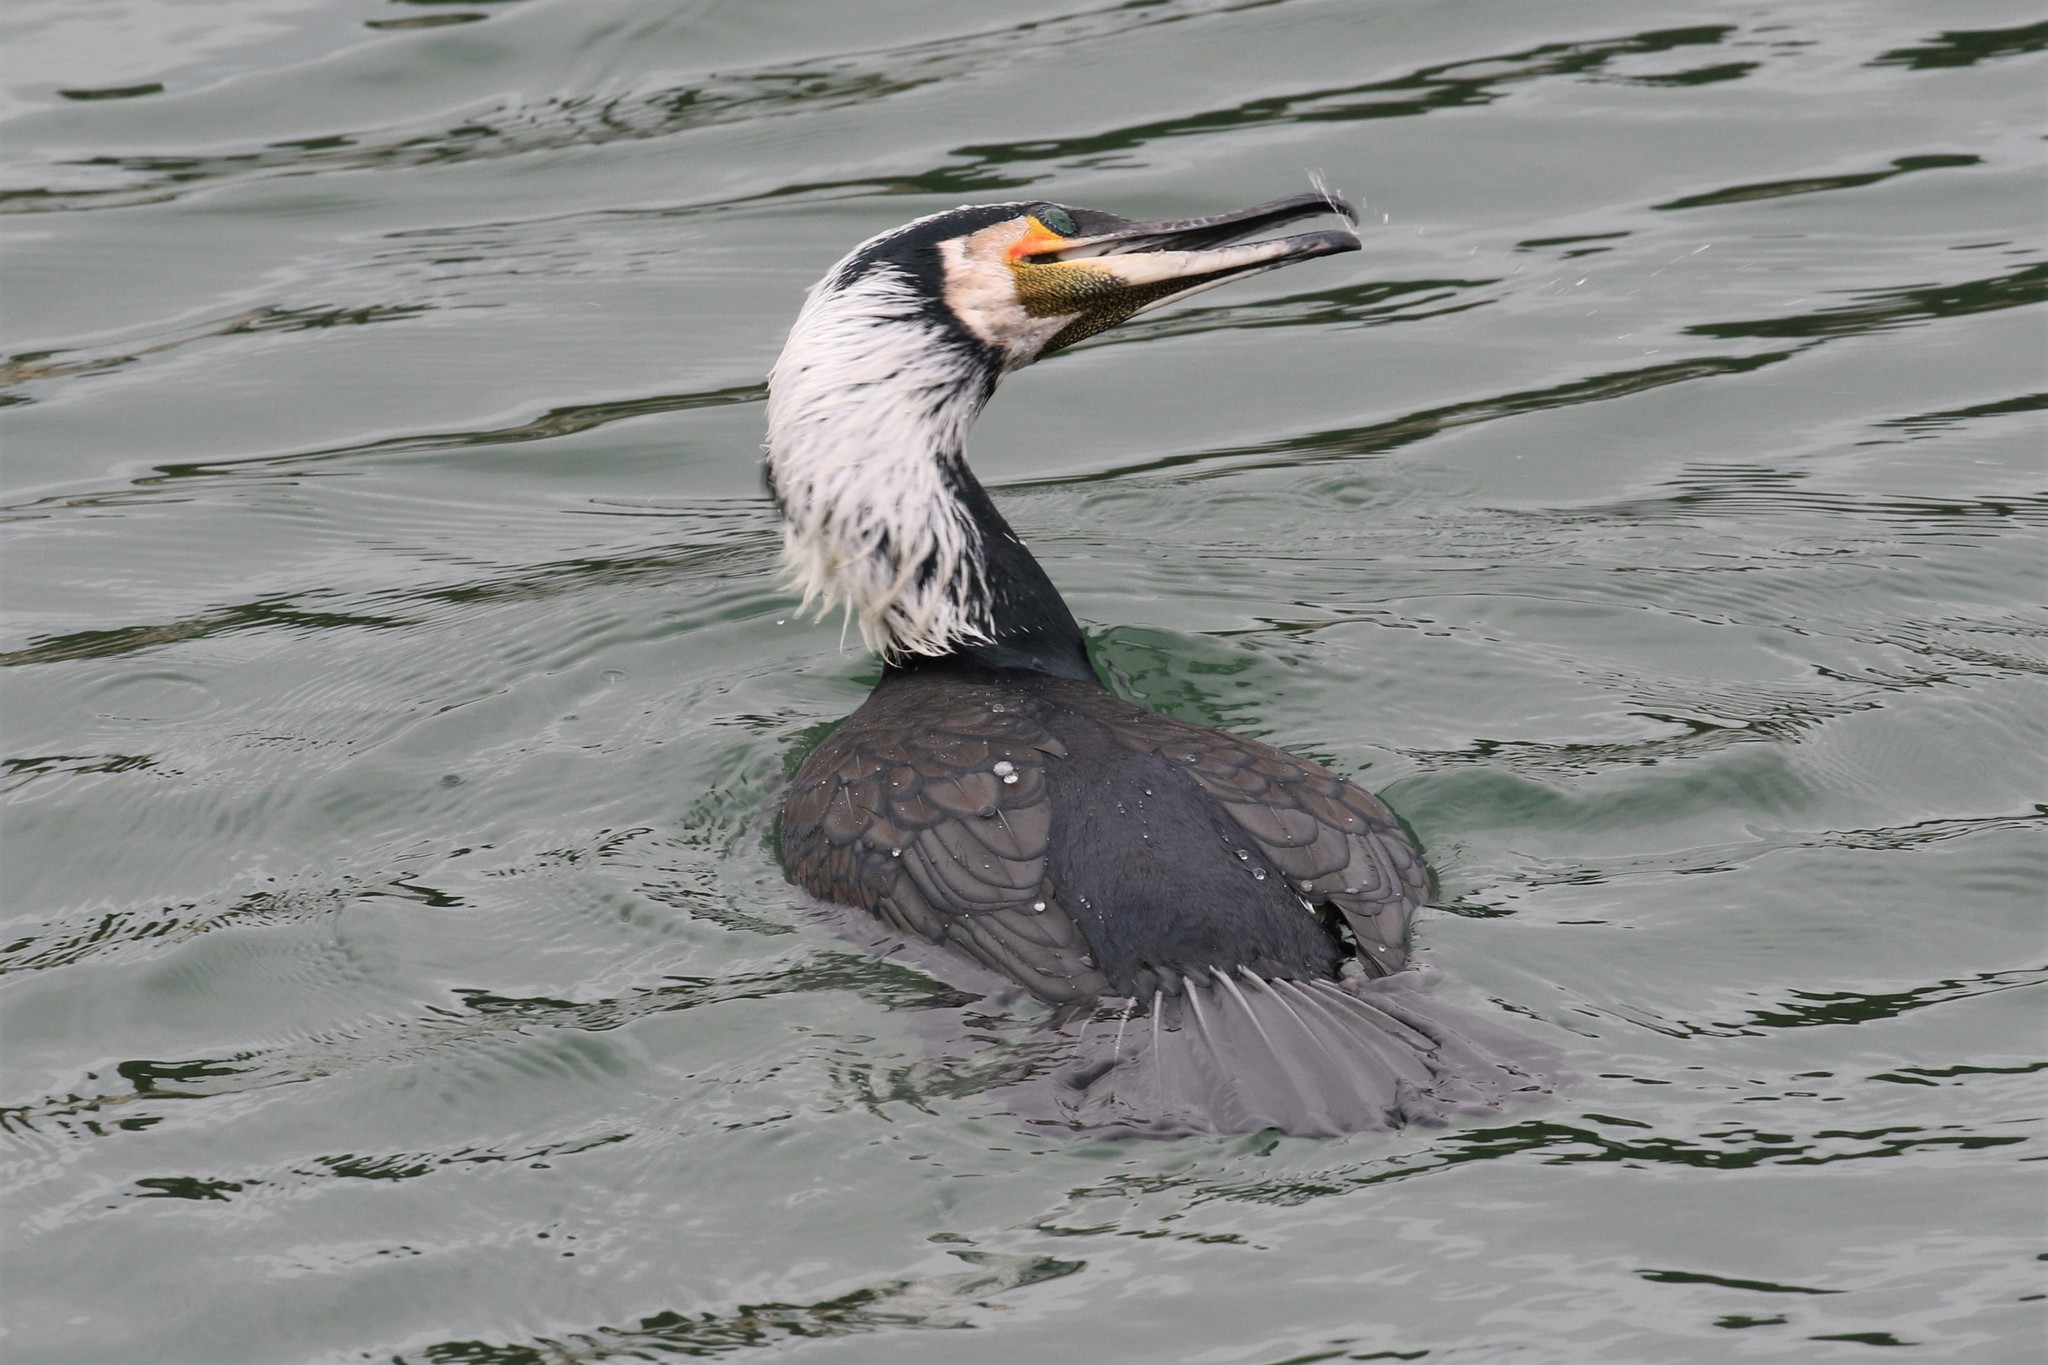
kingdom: Animalia
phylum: Chordata
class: Aves
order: Suliformes
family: Phalacrocoracidae
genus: Phalacrocorax
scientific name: Phalacrocorax carbo
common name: Great cormorant
